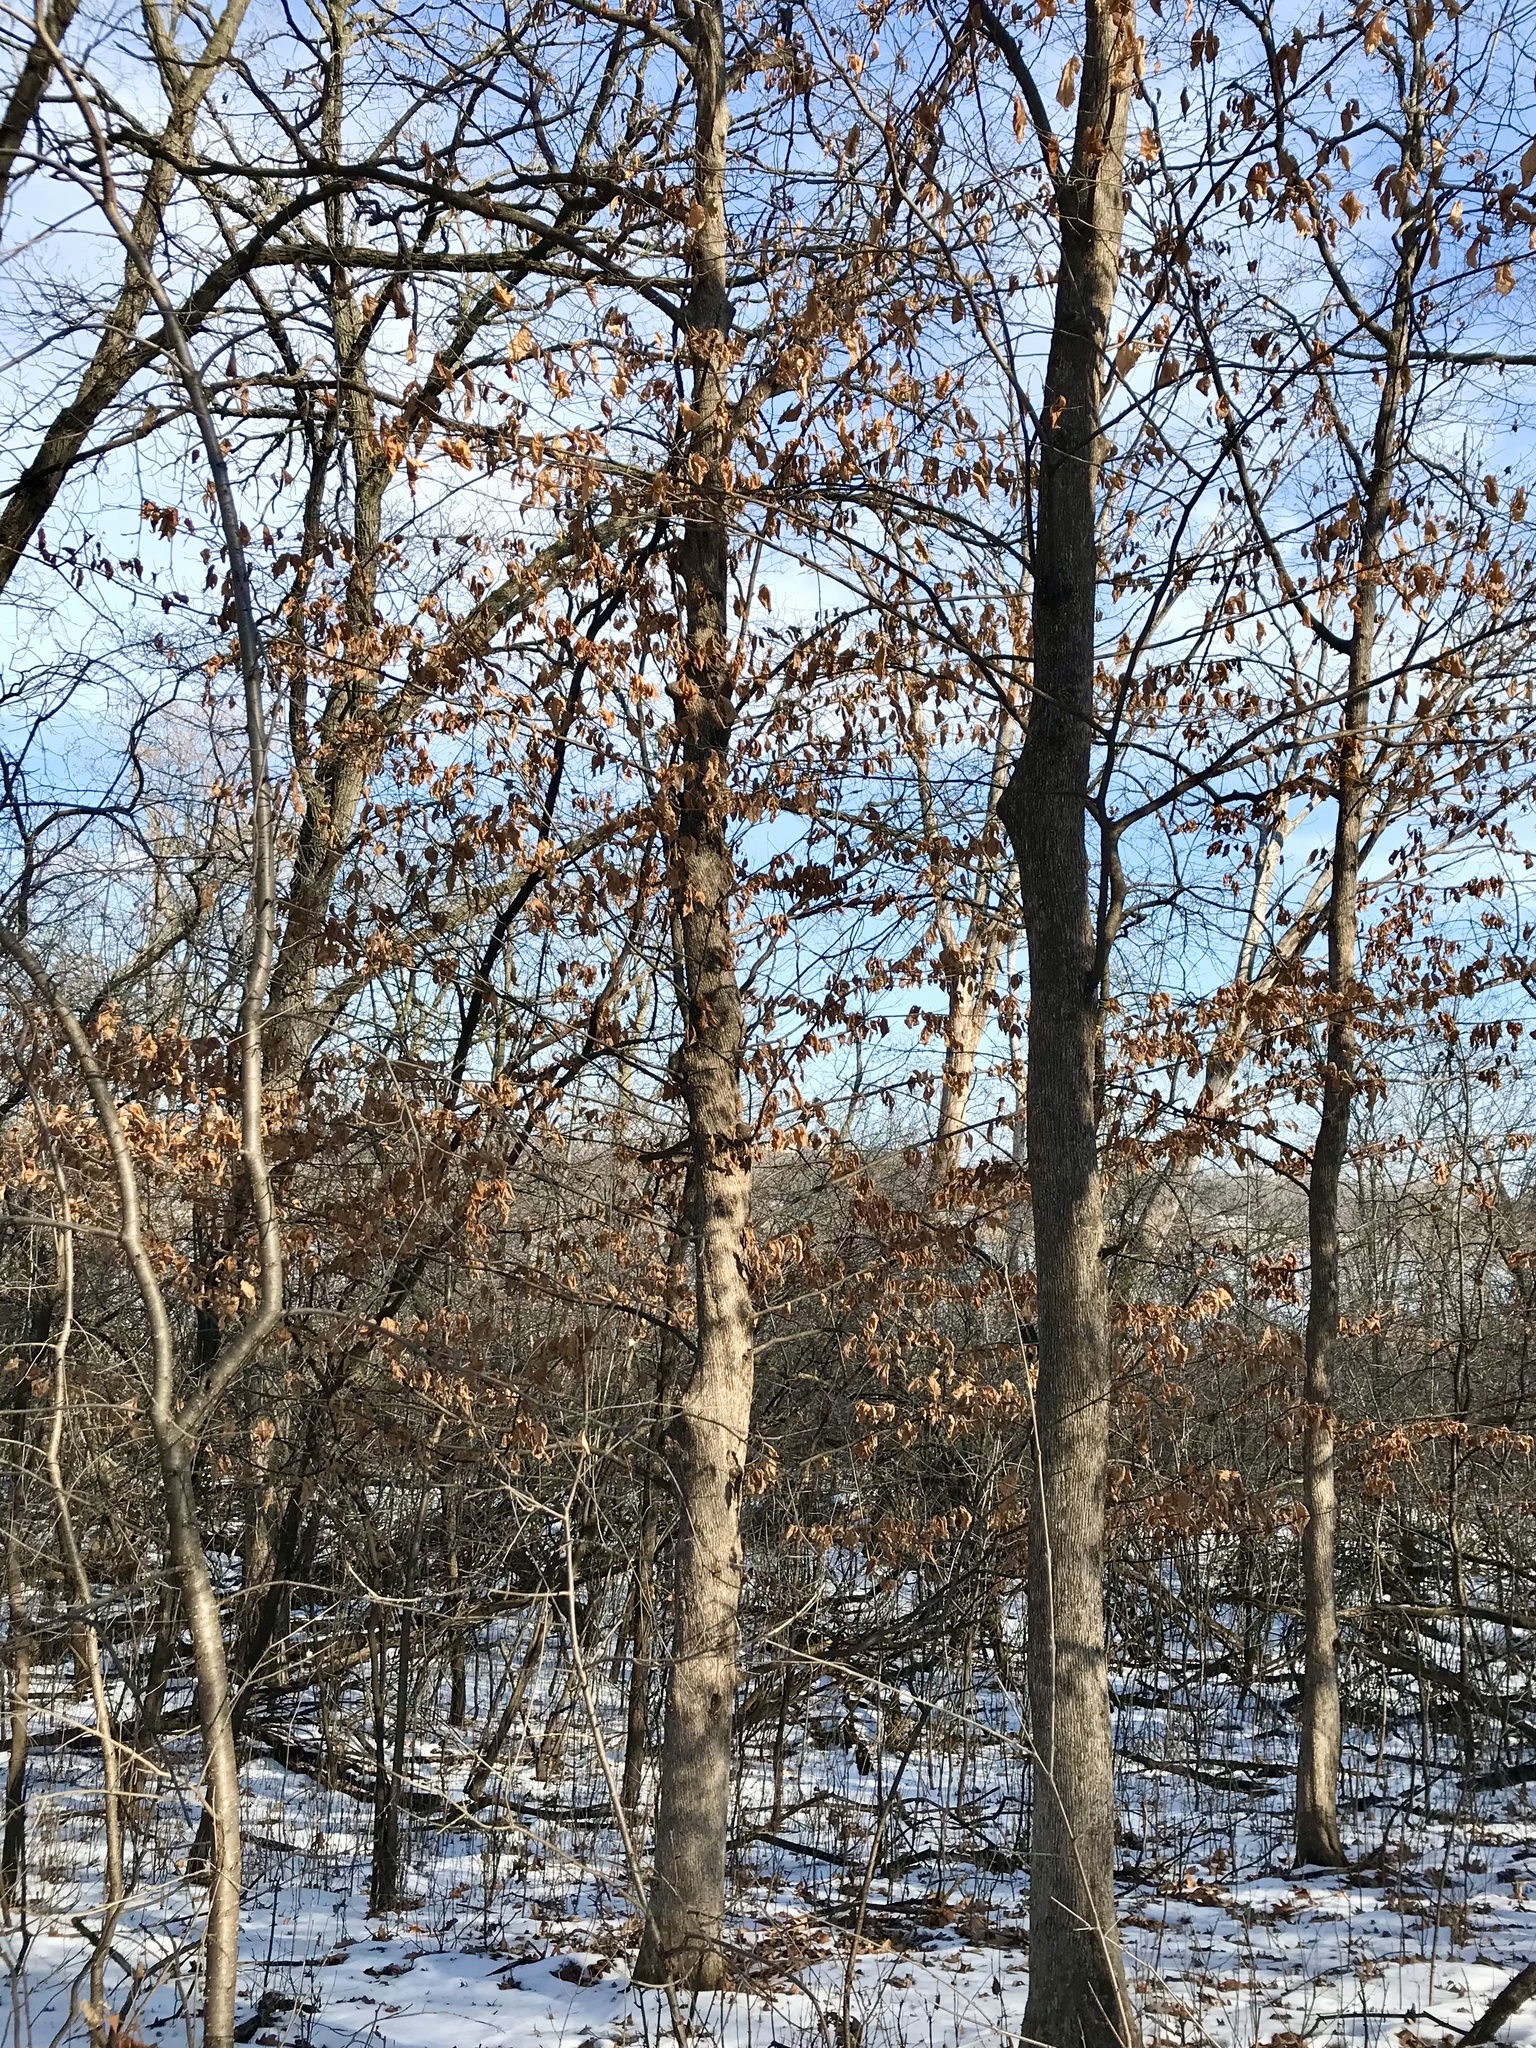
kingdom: Plantae
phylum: Tracheophyta
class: Magnoliopsida
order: Fagales
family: Betulaceae
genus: Ostrya
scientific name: Ostrya virginiana
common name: Ironwood
